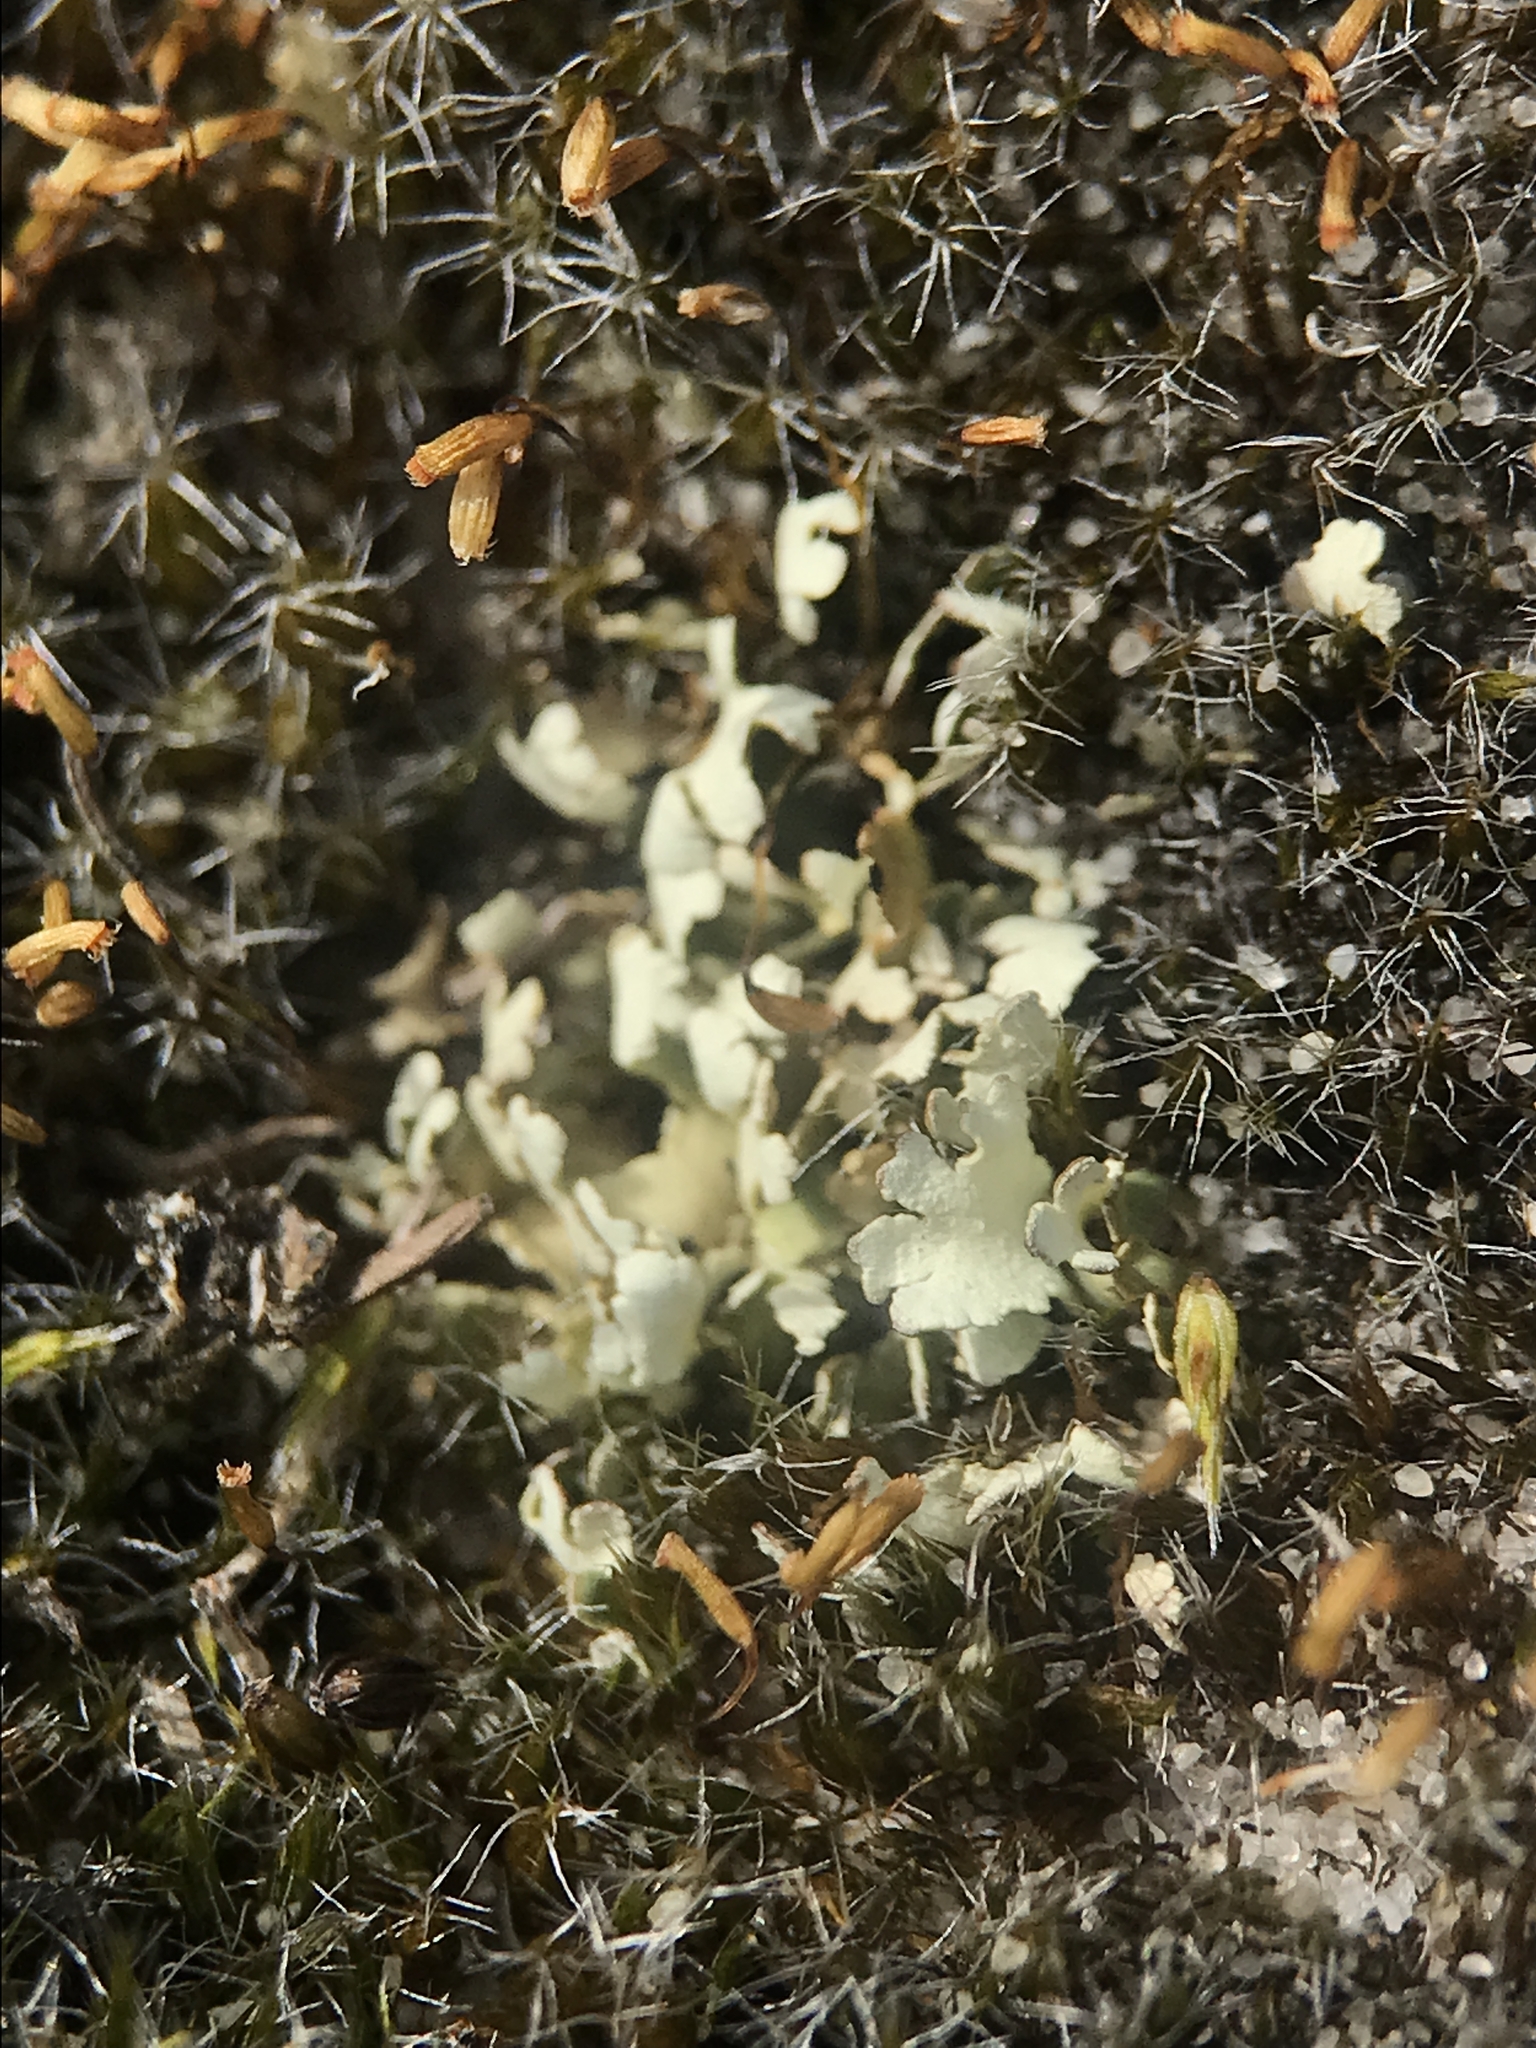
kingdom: Fungi
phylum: Ascomycota
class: Lecanoromycetes
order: Lecanorales
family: Cladoniaceae
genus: Cladonia
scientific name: Cladonia foliacea
